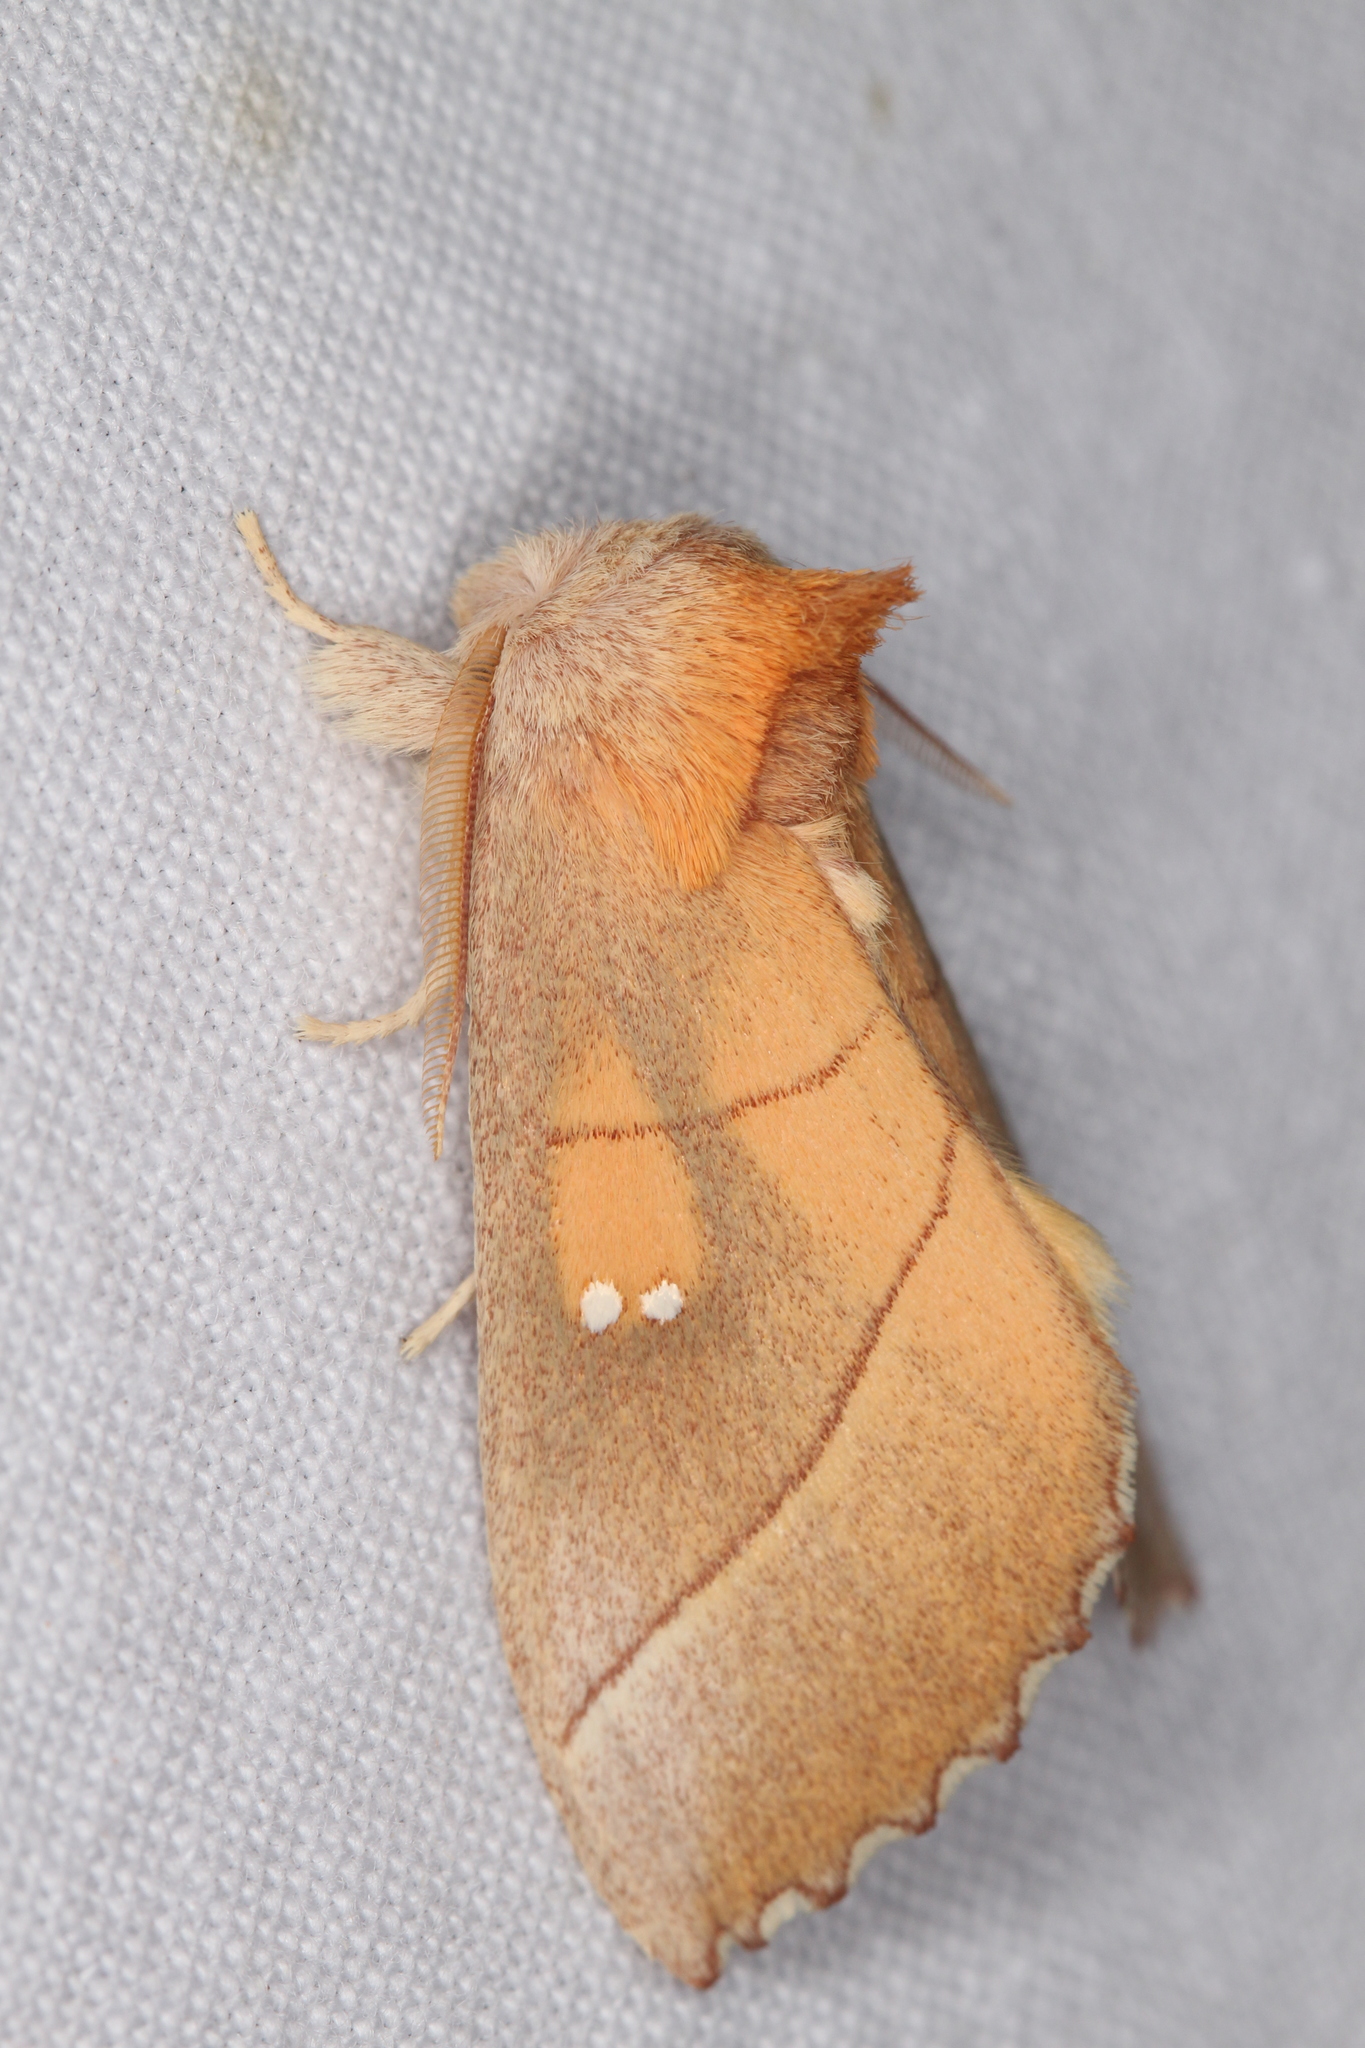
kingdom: Animalia
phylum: Arthropoda
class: Insecta
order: Lepidoptera
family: Notodontidae
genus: Nadata
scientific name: Nadata gibbosa
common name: White-dotted prominent
